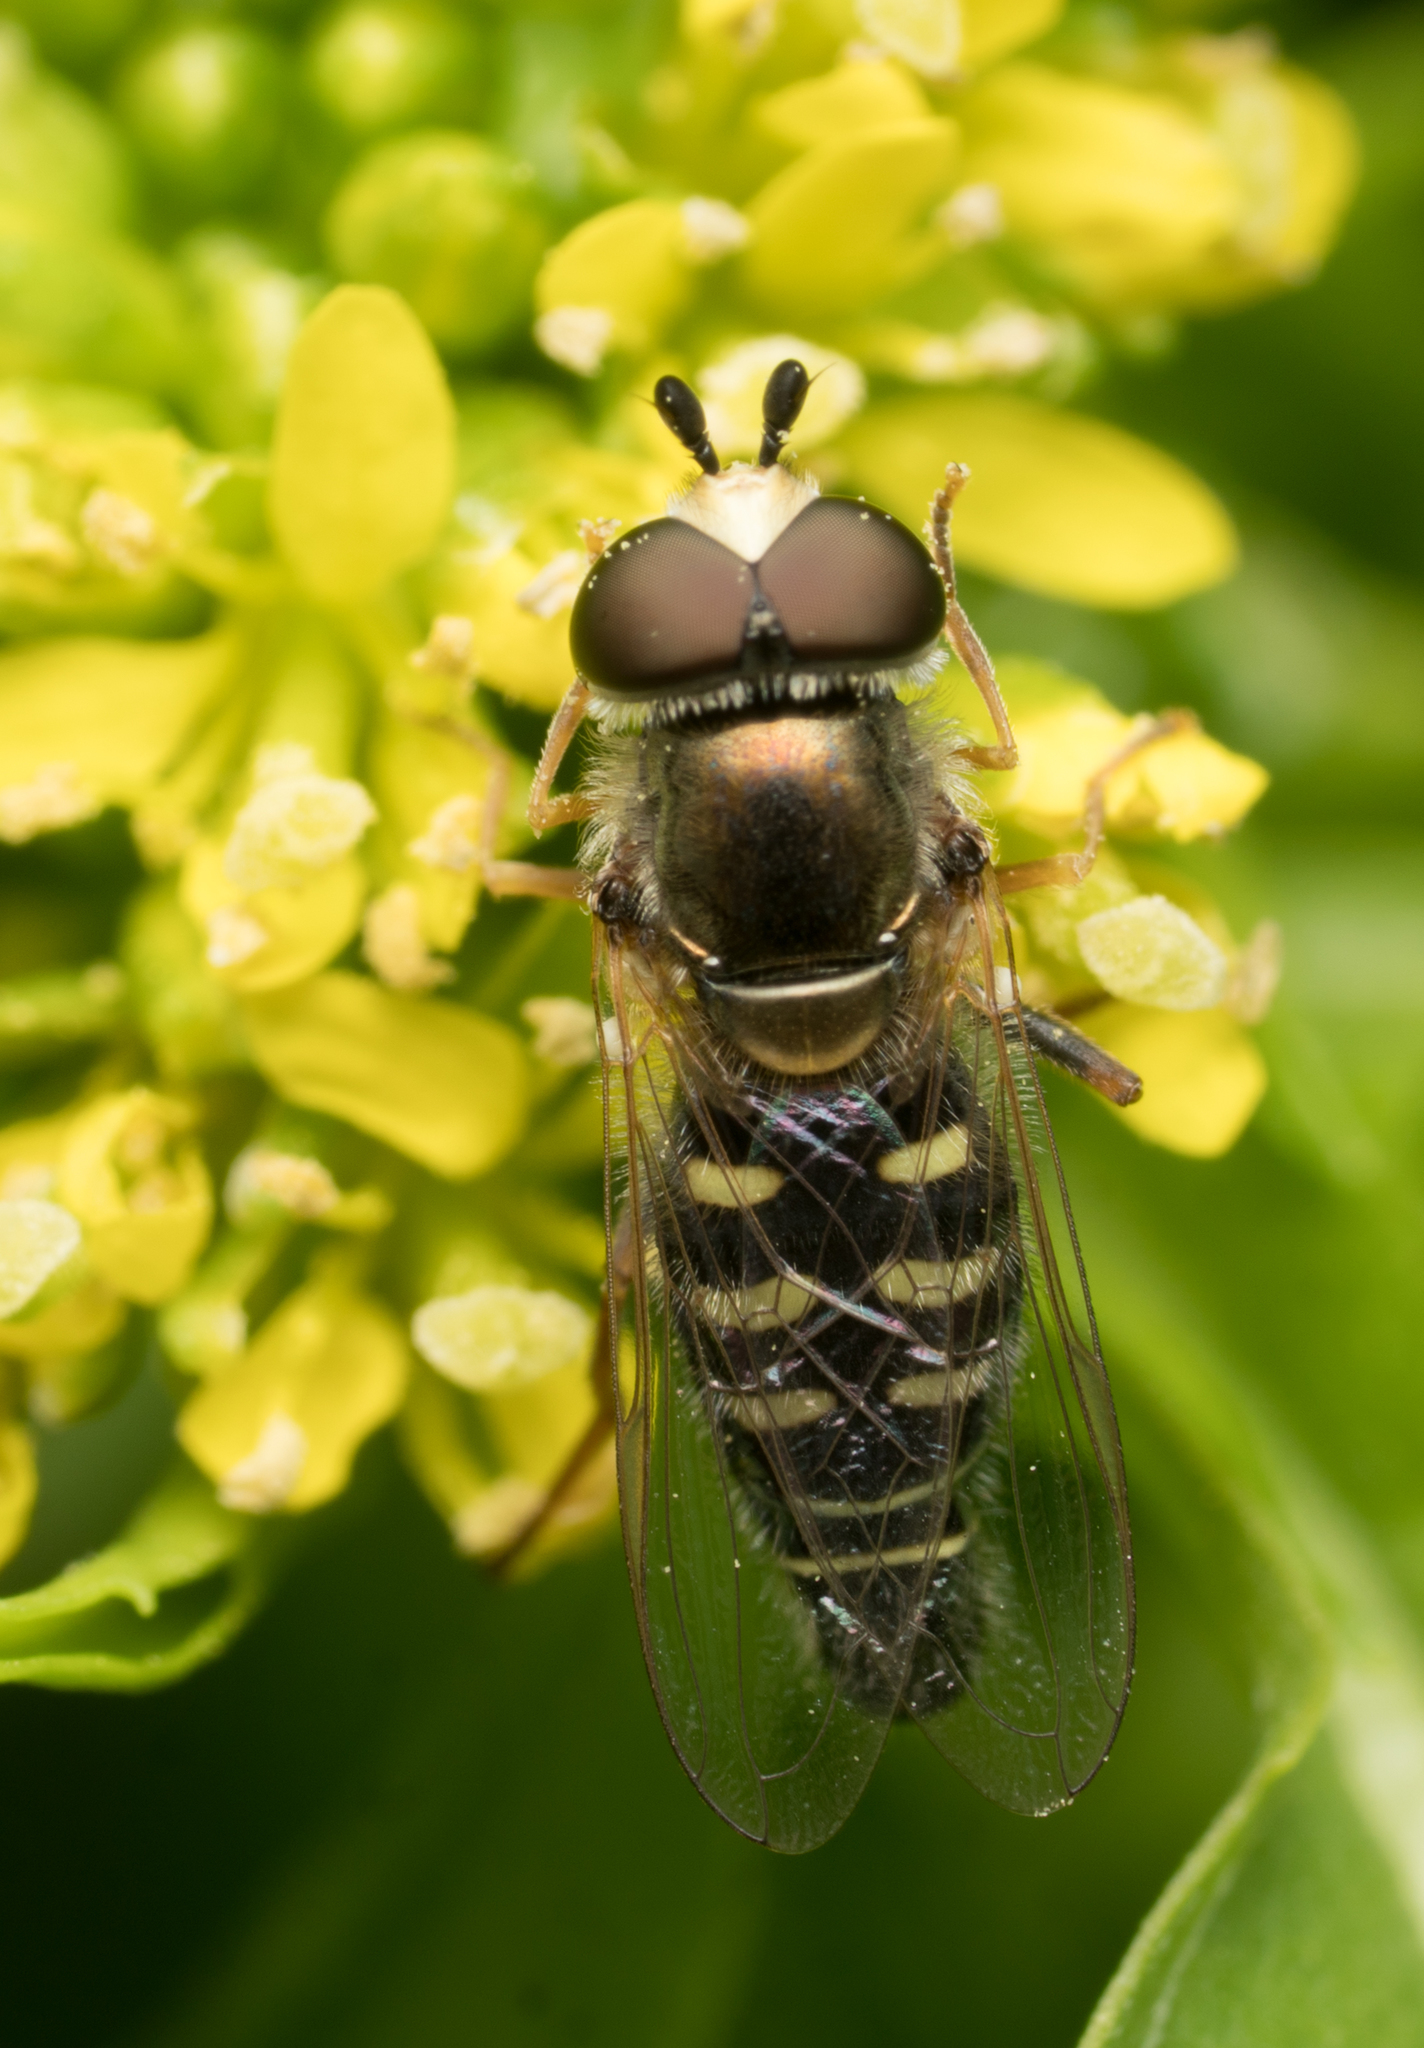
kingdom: Animalia
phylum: Arthropoda
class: Insecta
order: Diptera
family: Syrphidae
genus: Eupeodes
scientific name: Eupeodes volucris
